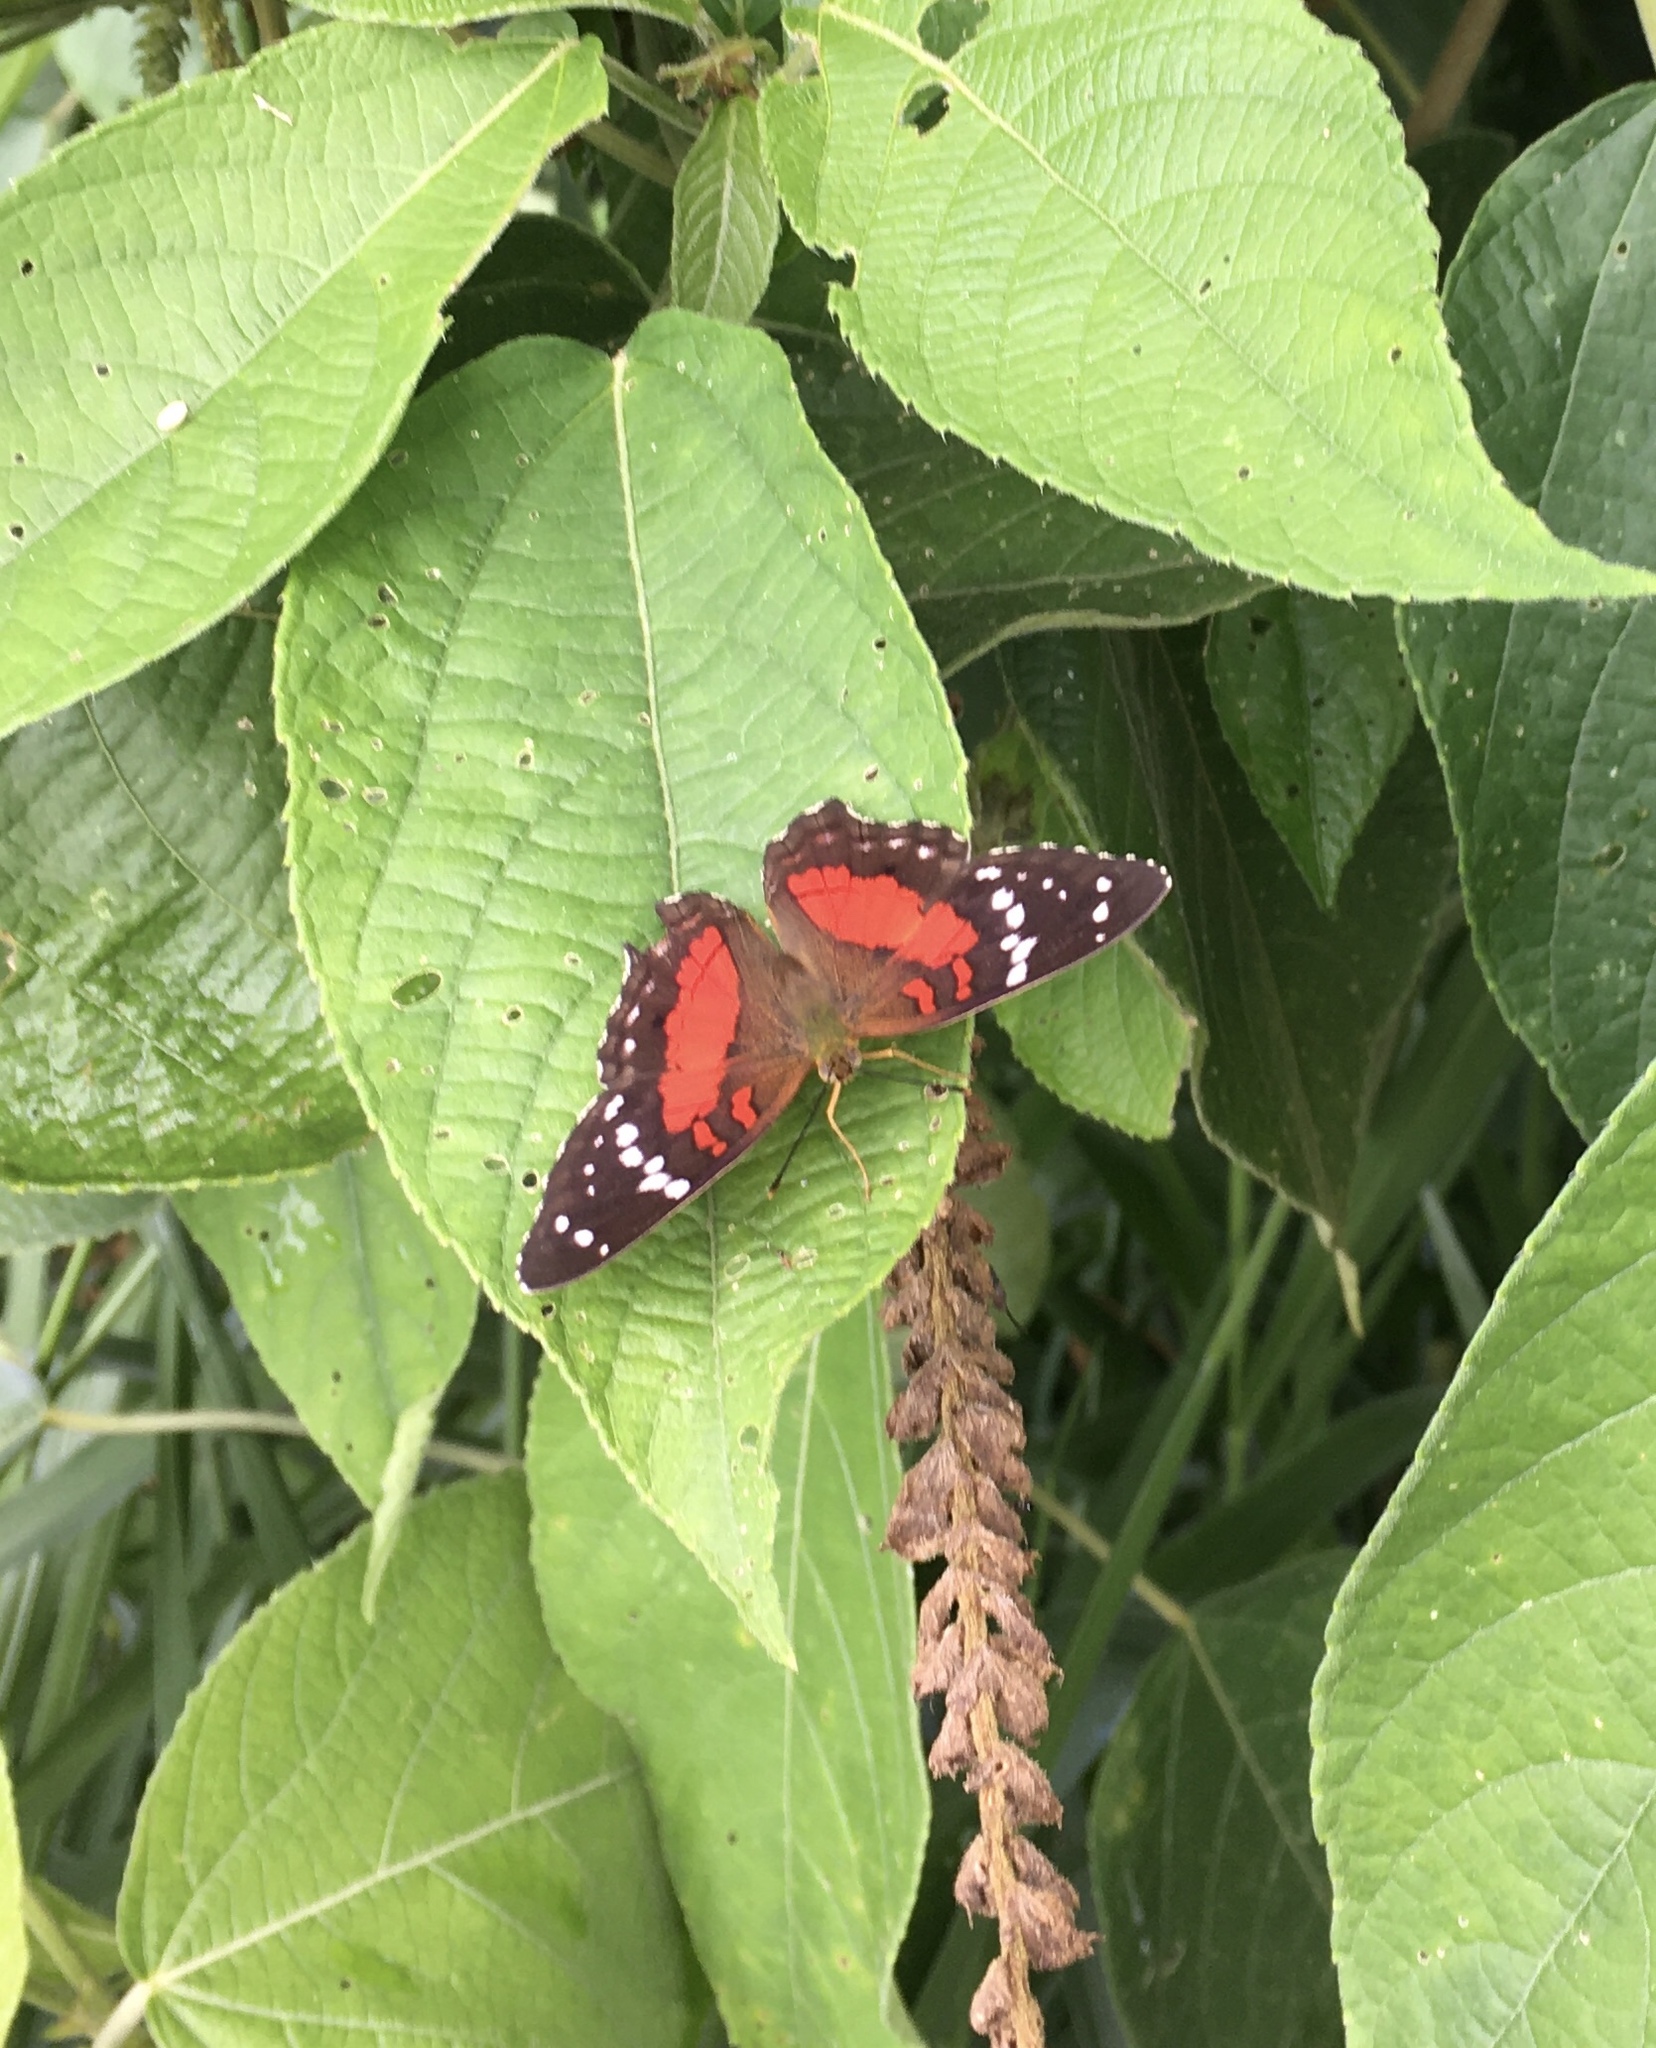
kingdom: Animalia
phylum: Arthropoda
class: Insecta
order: Lepidoptera
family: Nymphalidae
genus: Anartia
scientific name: Anartia amathea
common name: Red peacock
